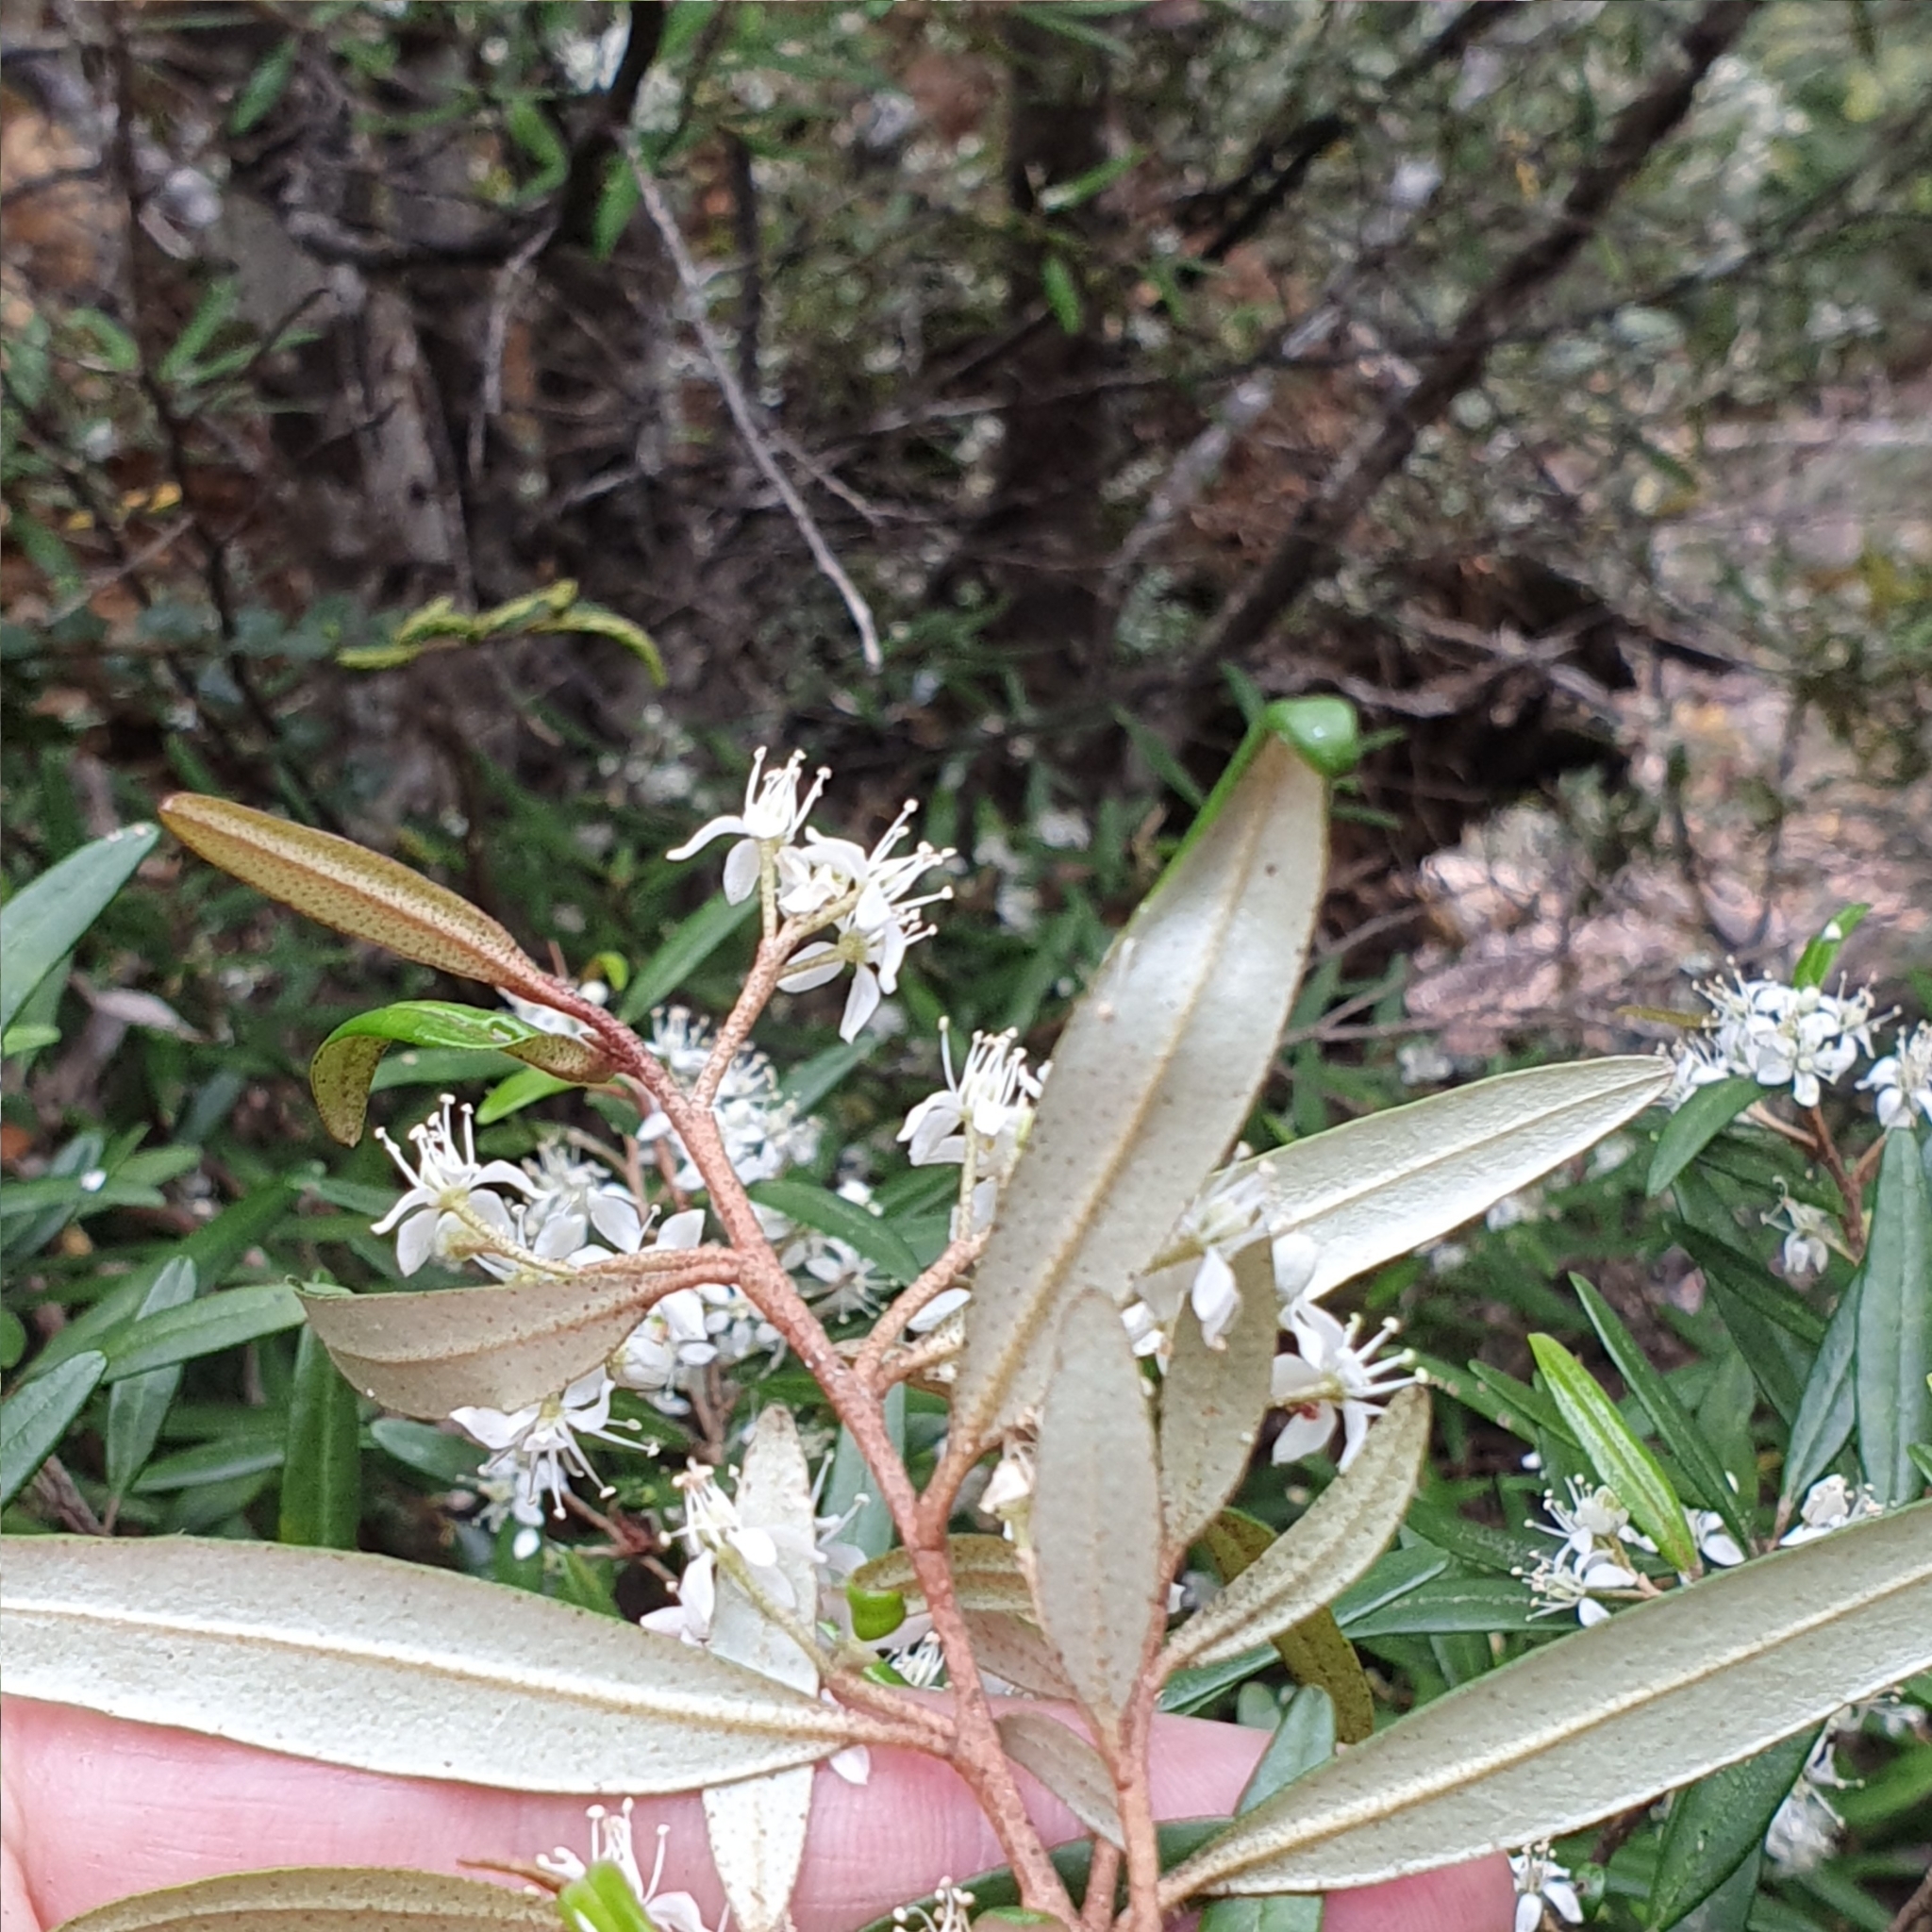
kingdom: Plantae
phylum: Tracheophyta
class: Magnoliopsida
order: Sapindales
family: Rutaceae
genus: Nematolepis
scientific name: Nematolepis squamea
